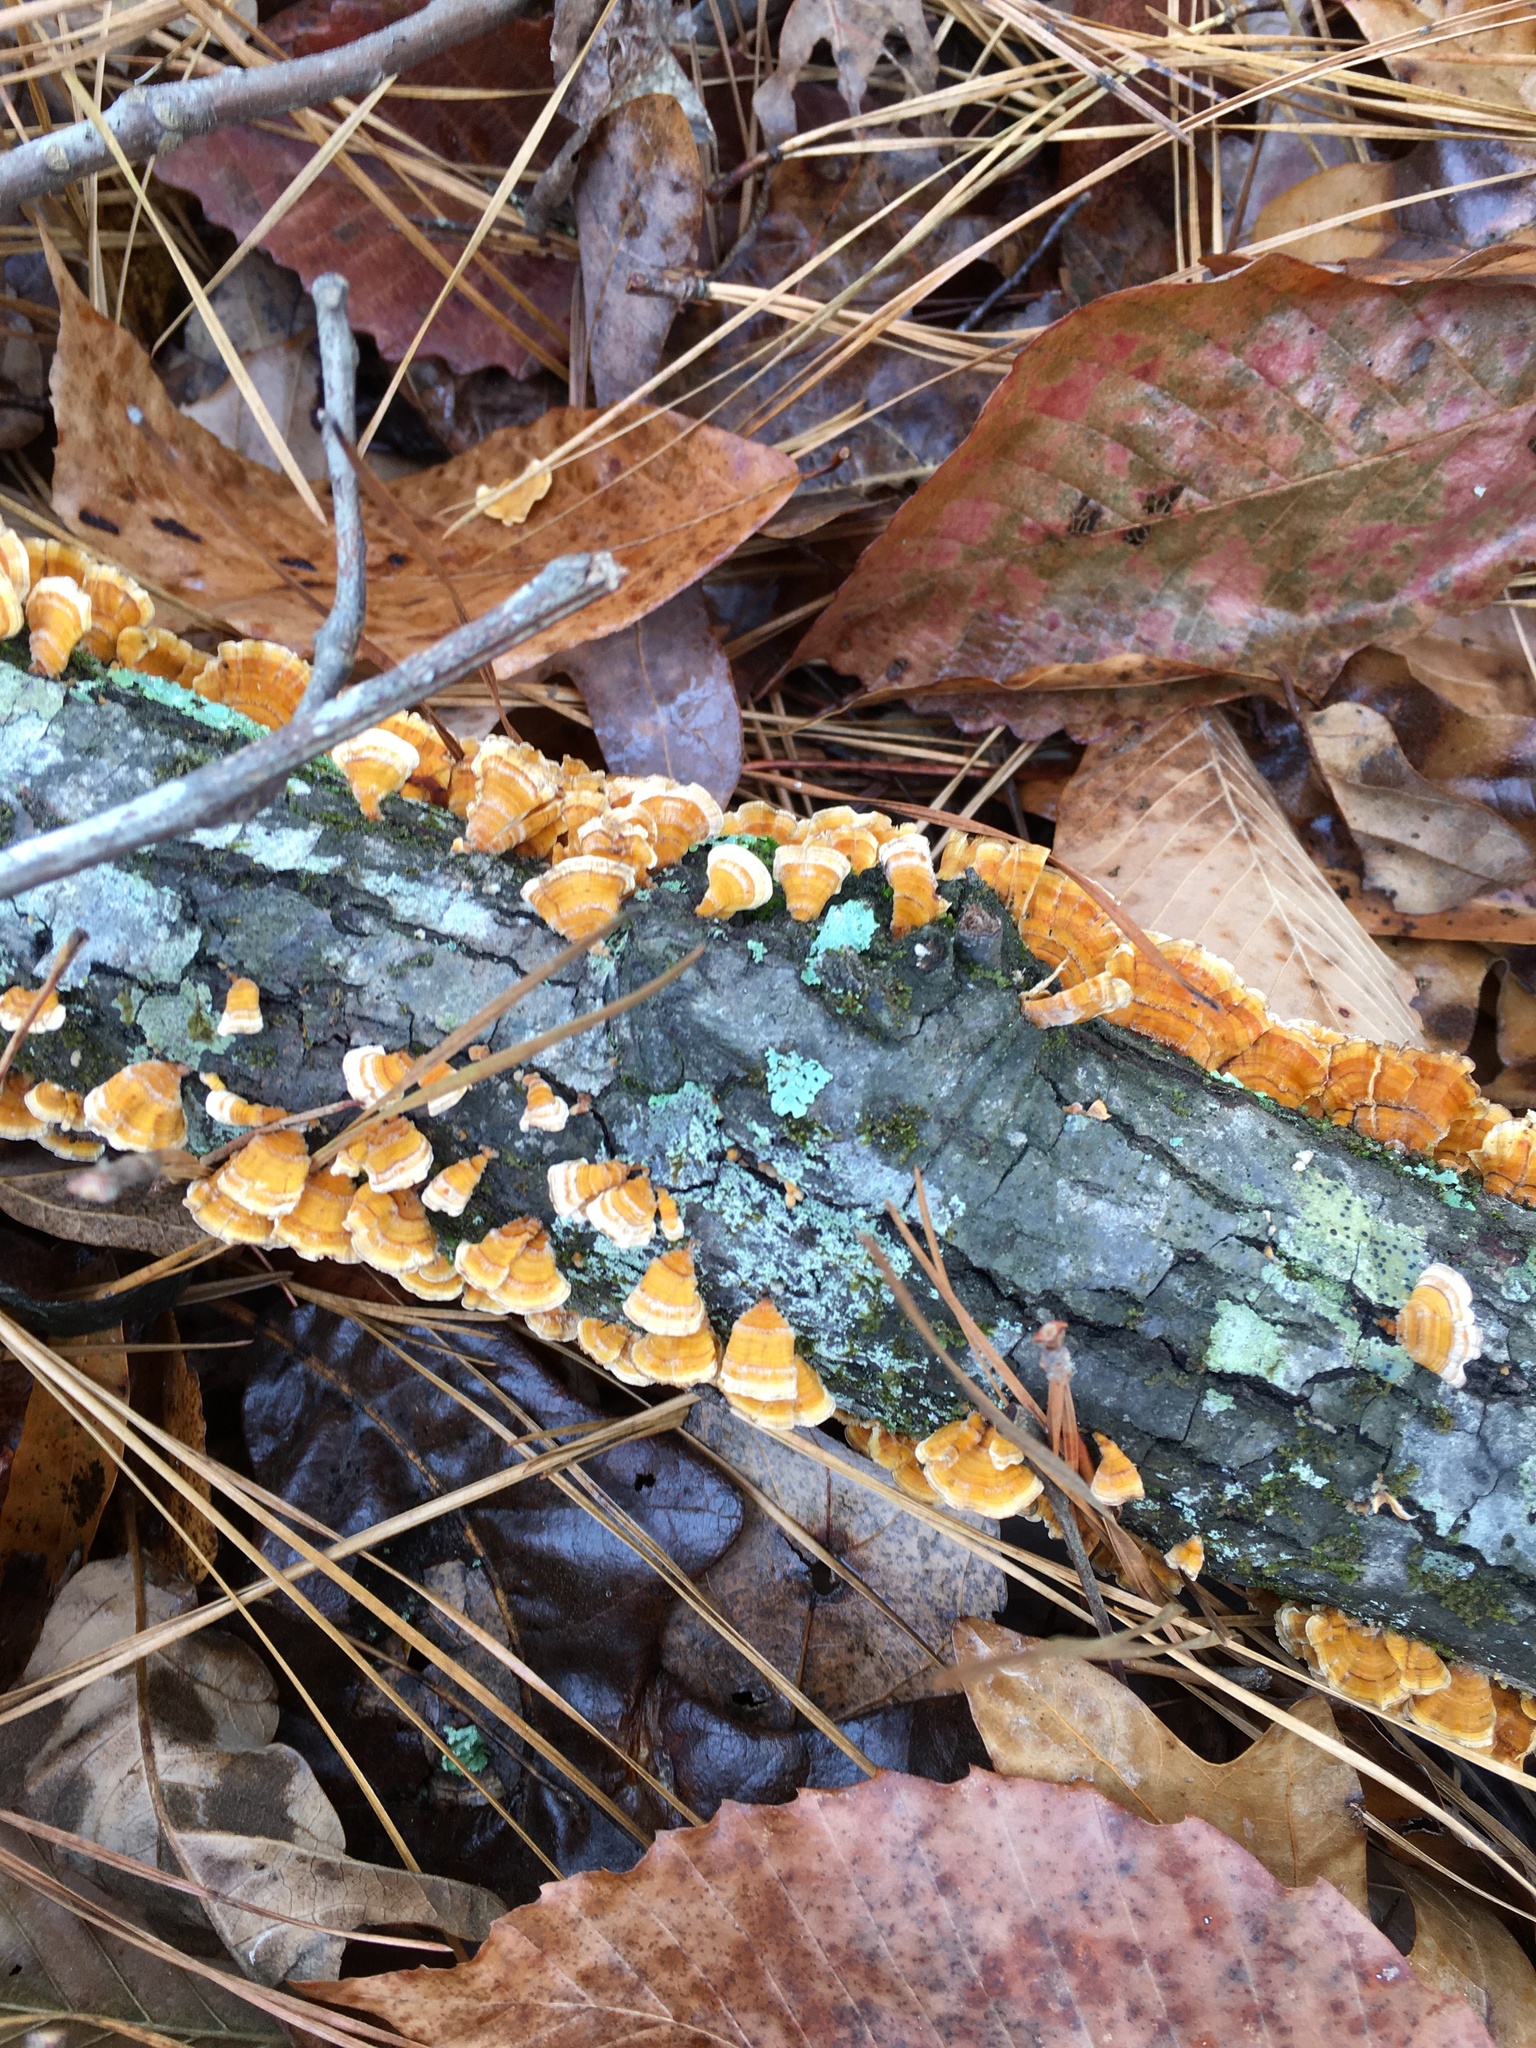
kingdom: Fungi
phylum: Basidiomycota
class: Agaricomycetes
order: Russulales
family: Stereaceae
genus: Stereum
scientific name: Stereum complicatum
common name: Crowded parchment
